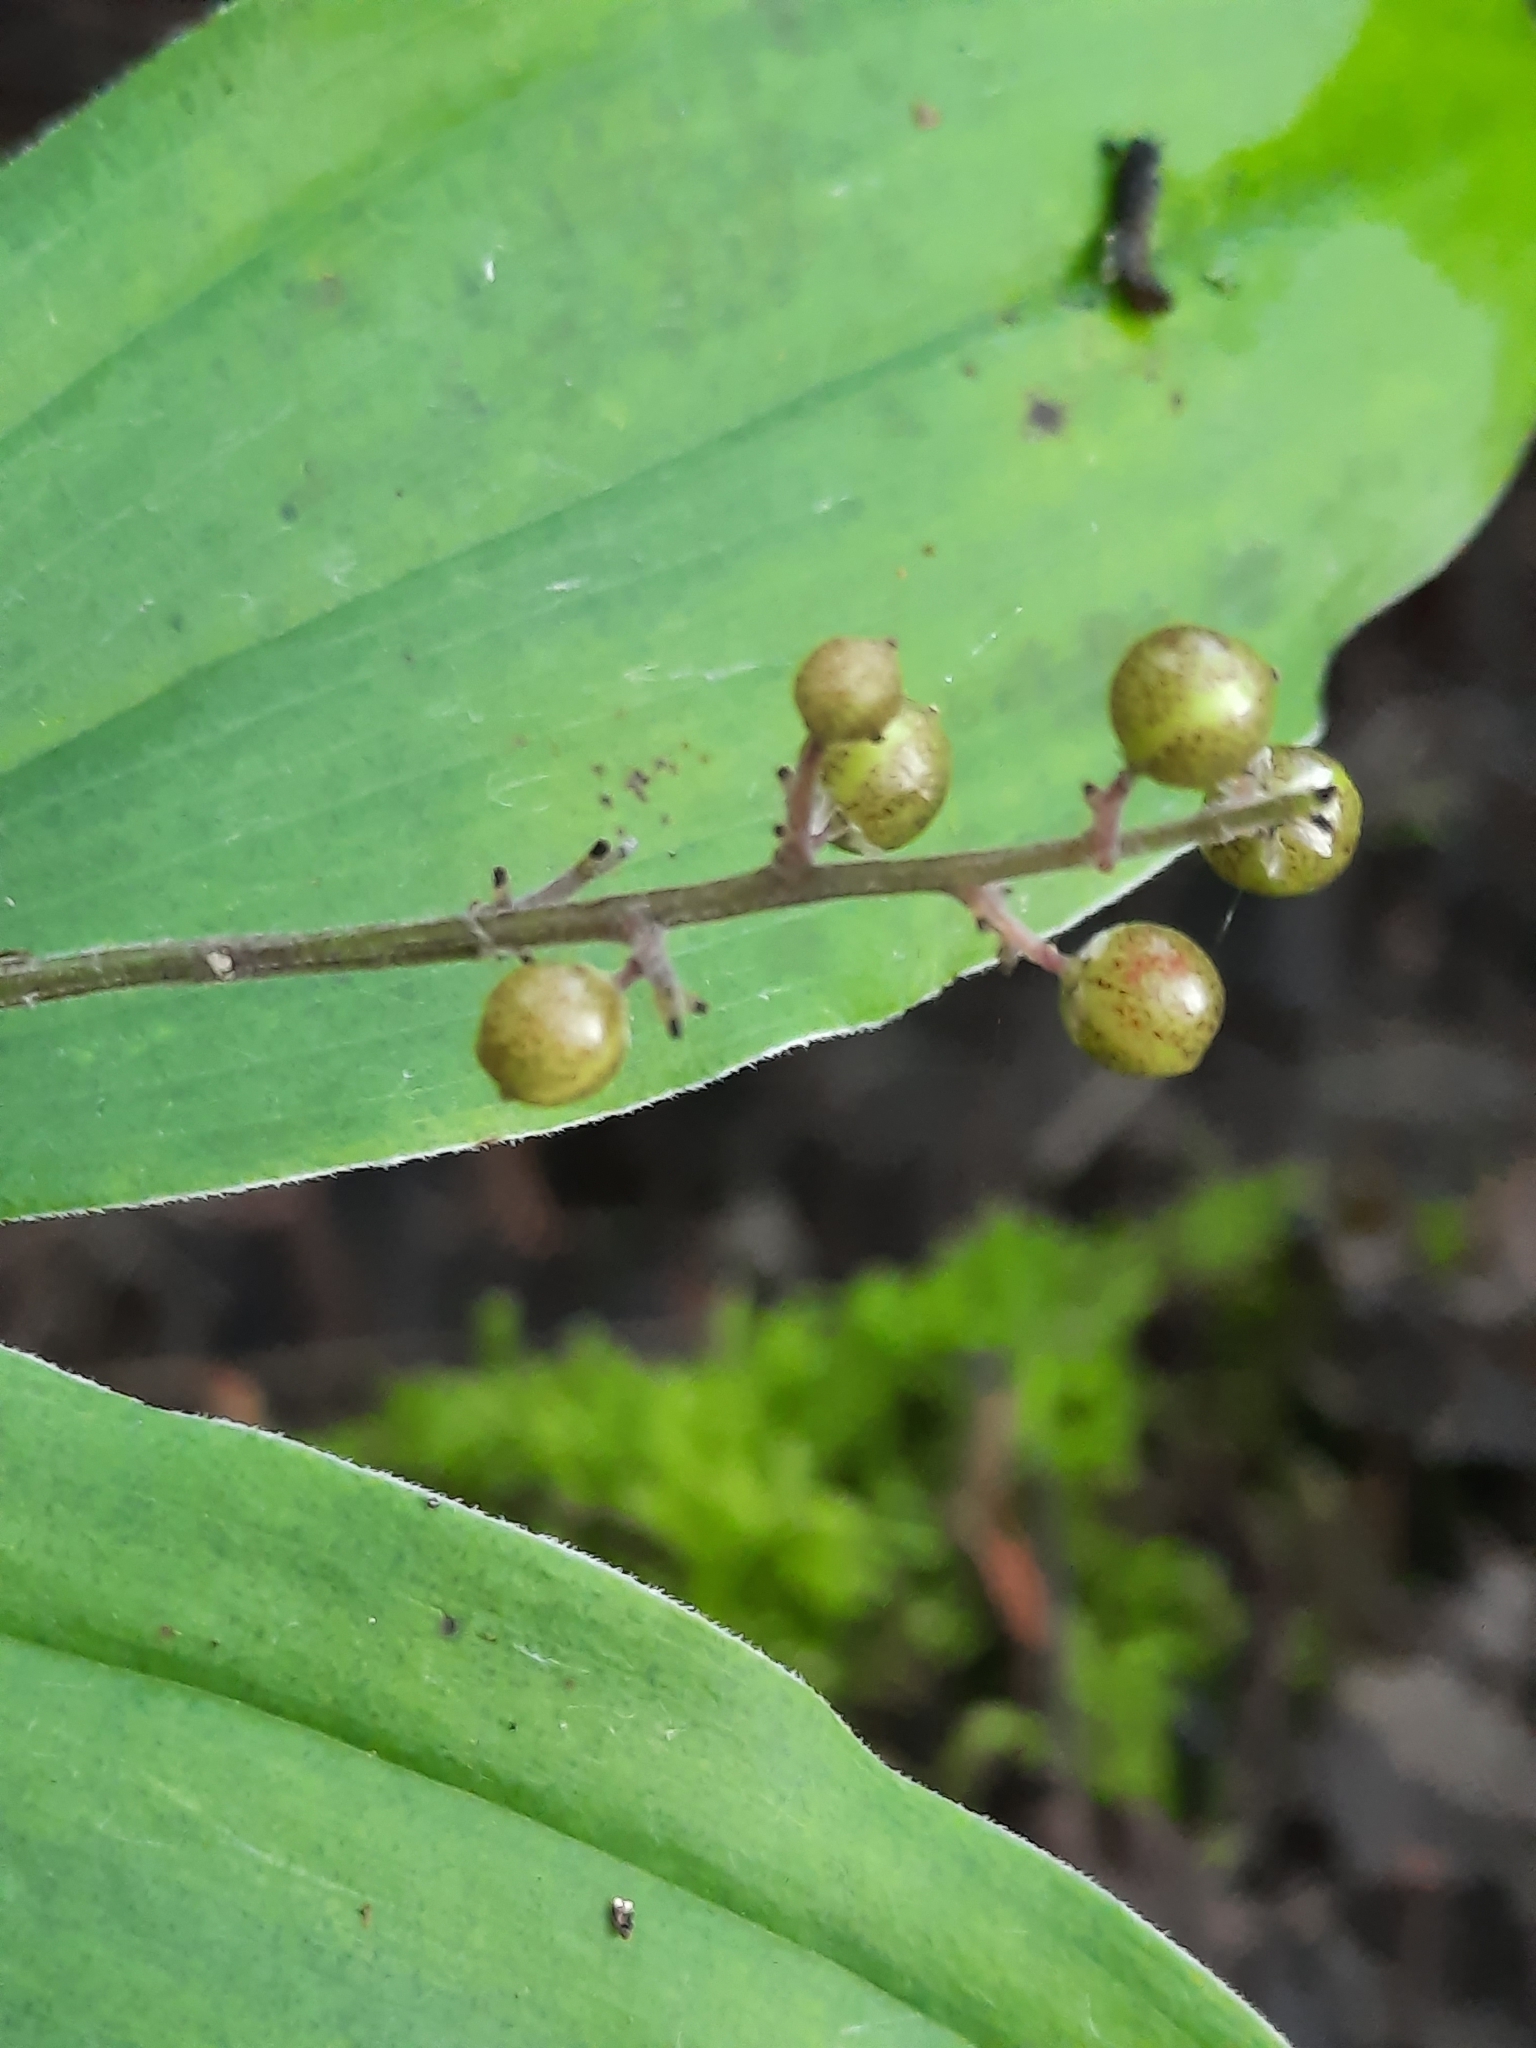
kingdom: Plantae
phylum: Tracheophyta
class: Liliopsida
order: Asparagales
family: Asparagaceae
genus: Maianthemum
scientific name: Maianthemum racemosum
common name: False spikenard
